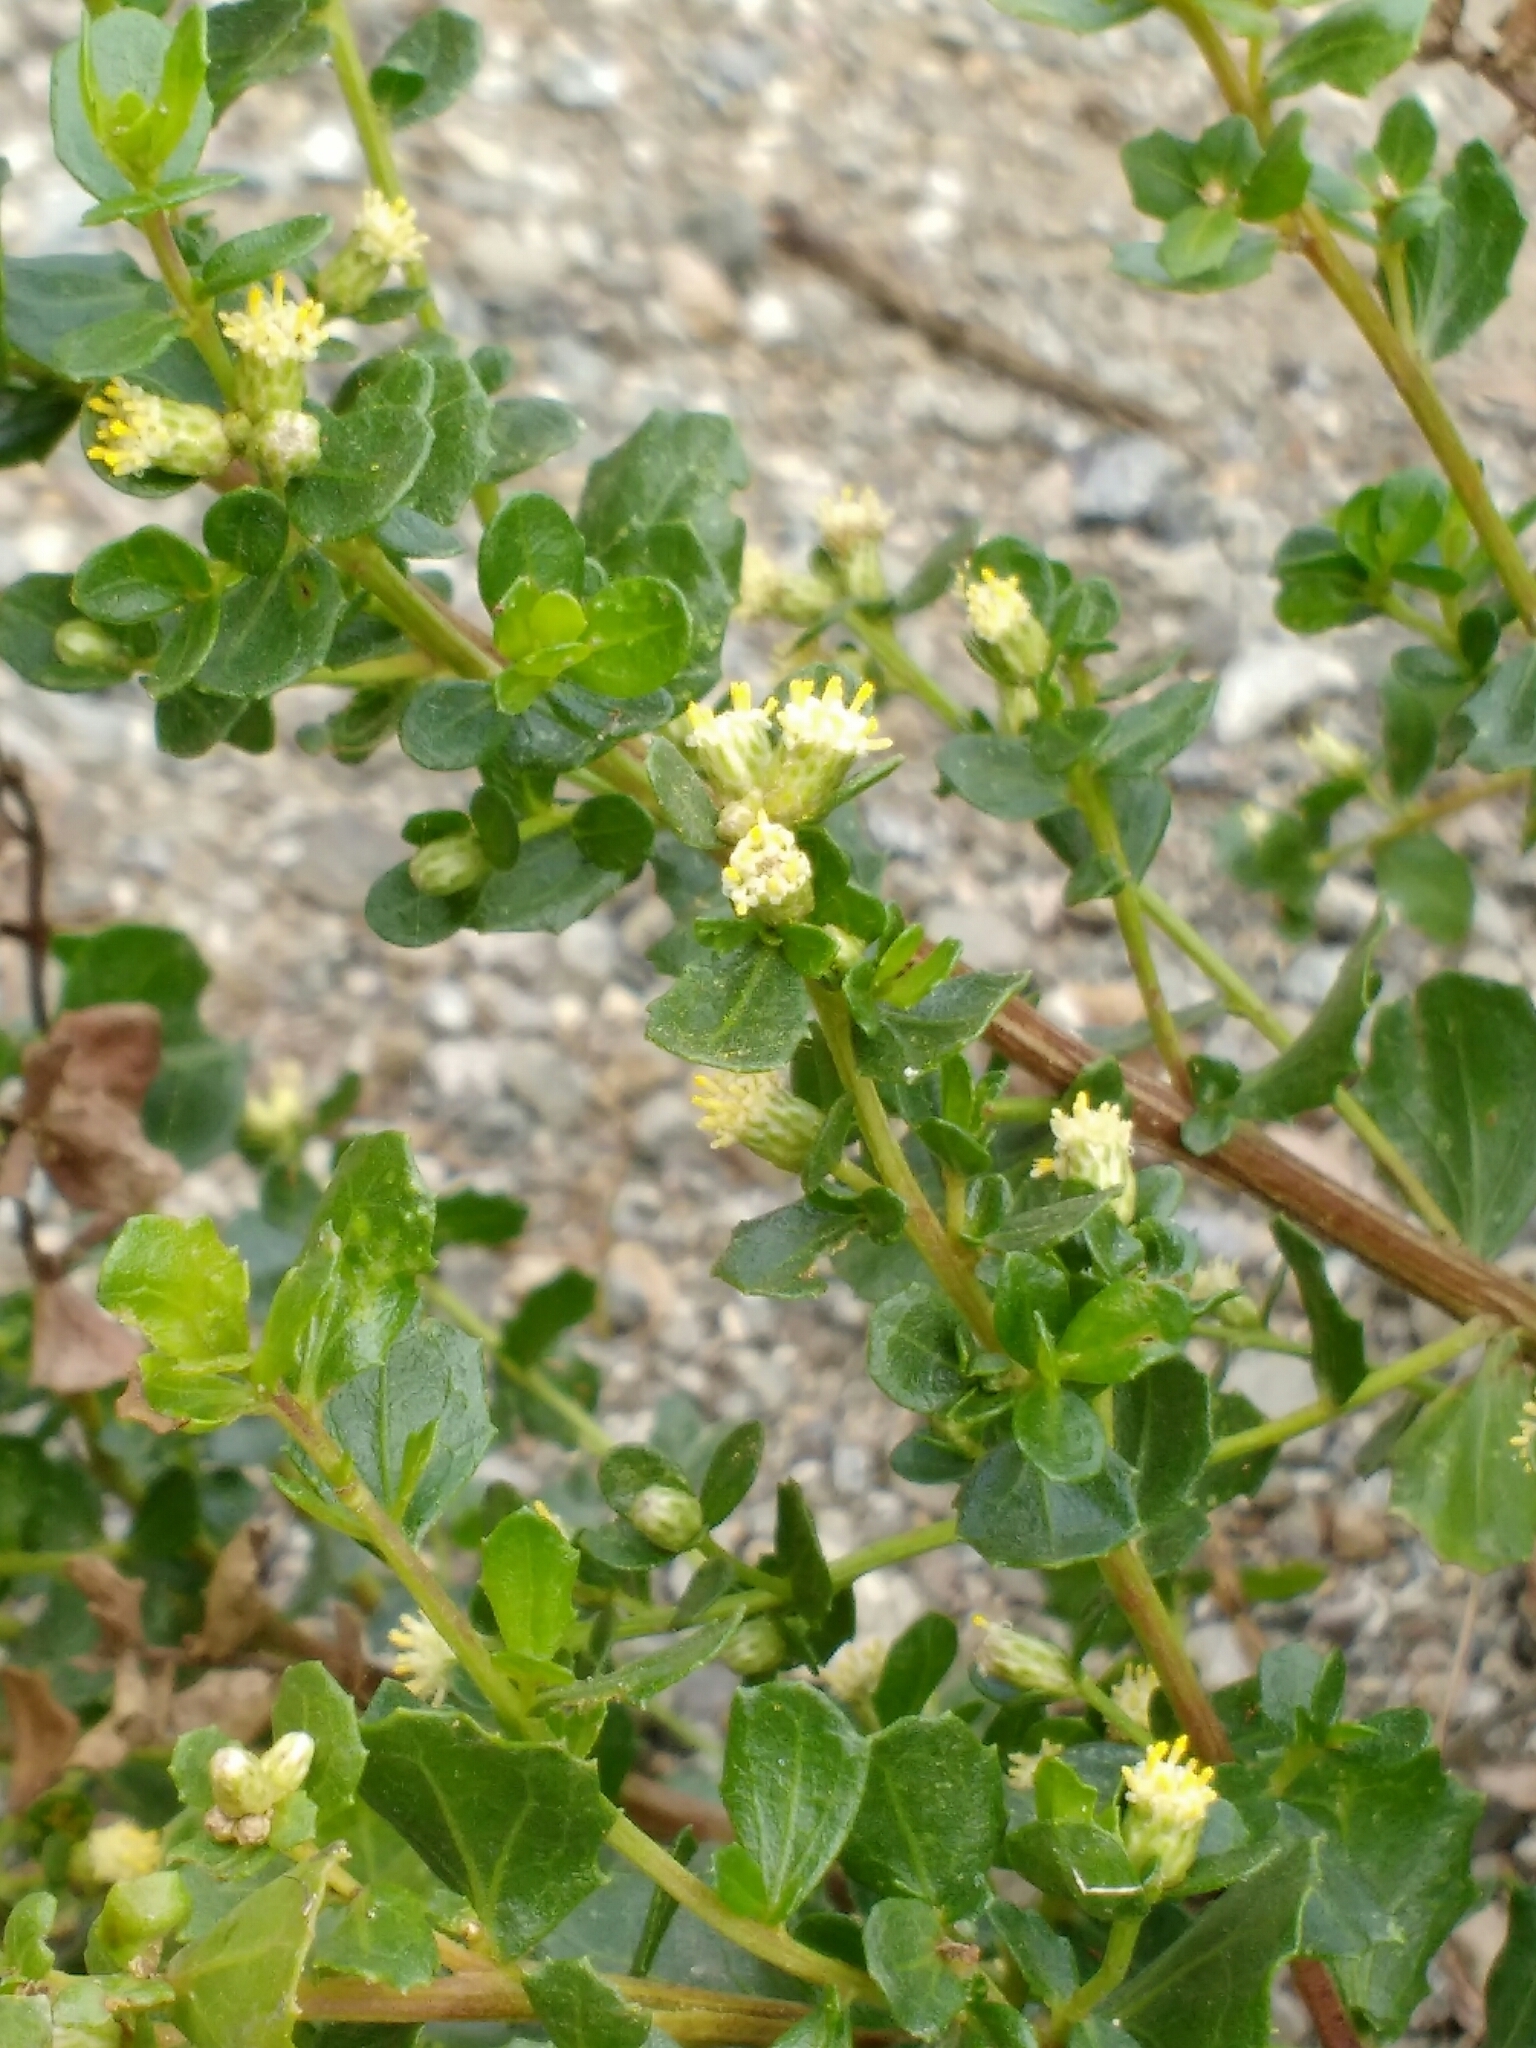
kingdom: Plantae
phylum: Tracheophyta
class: Magnoliopsida
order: Asterales
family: Asteraceae
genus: Baccharis
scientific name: Baccharis pilularis
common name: Coyotebrush
